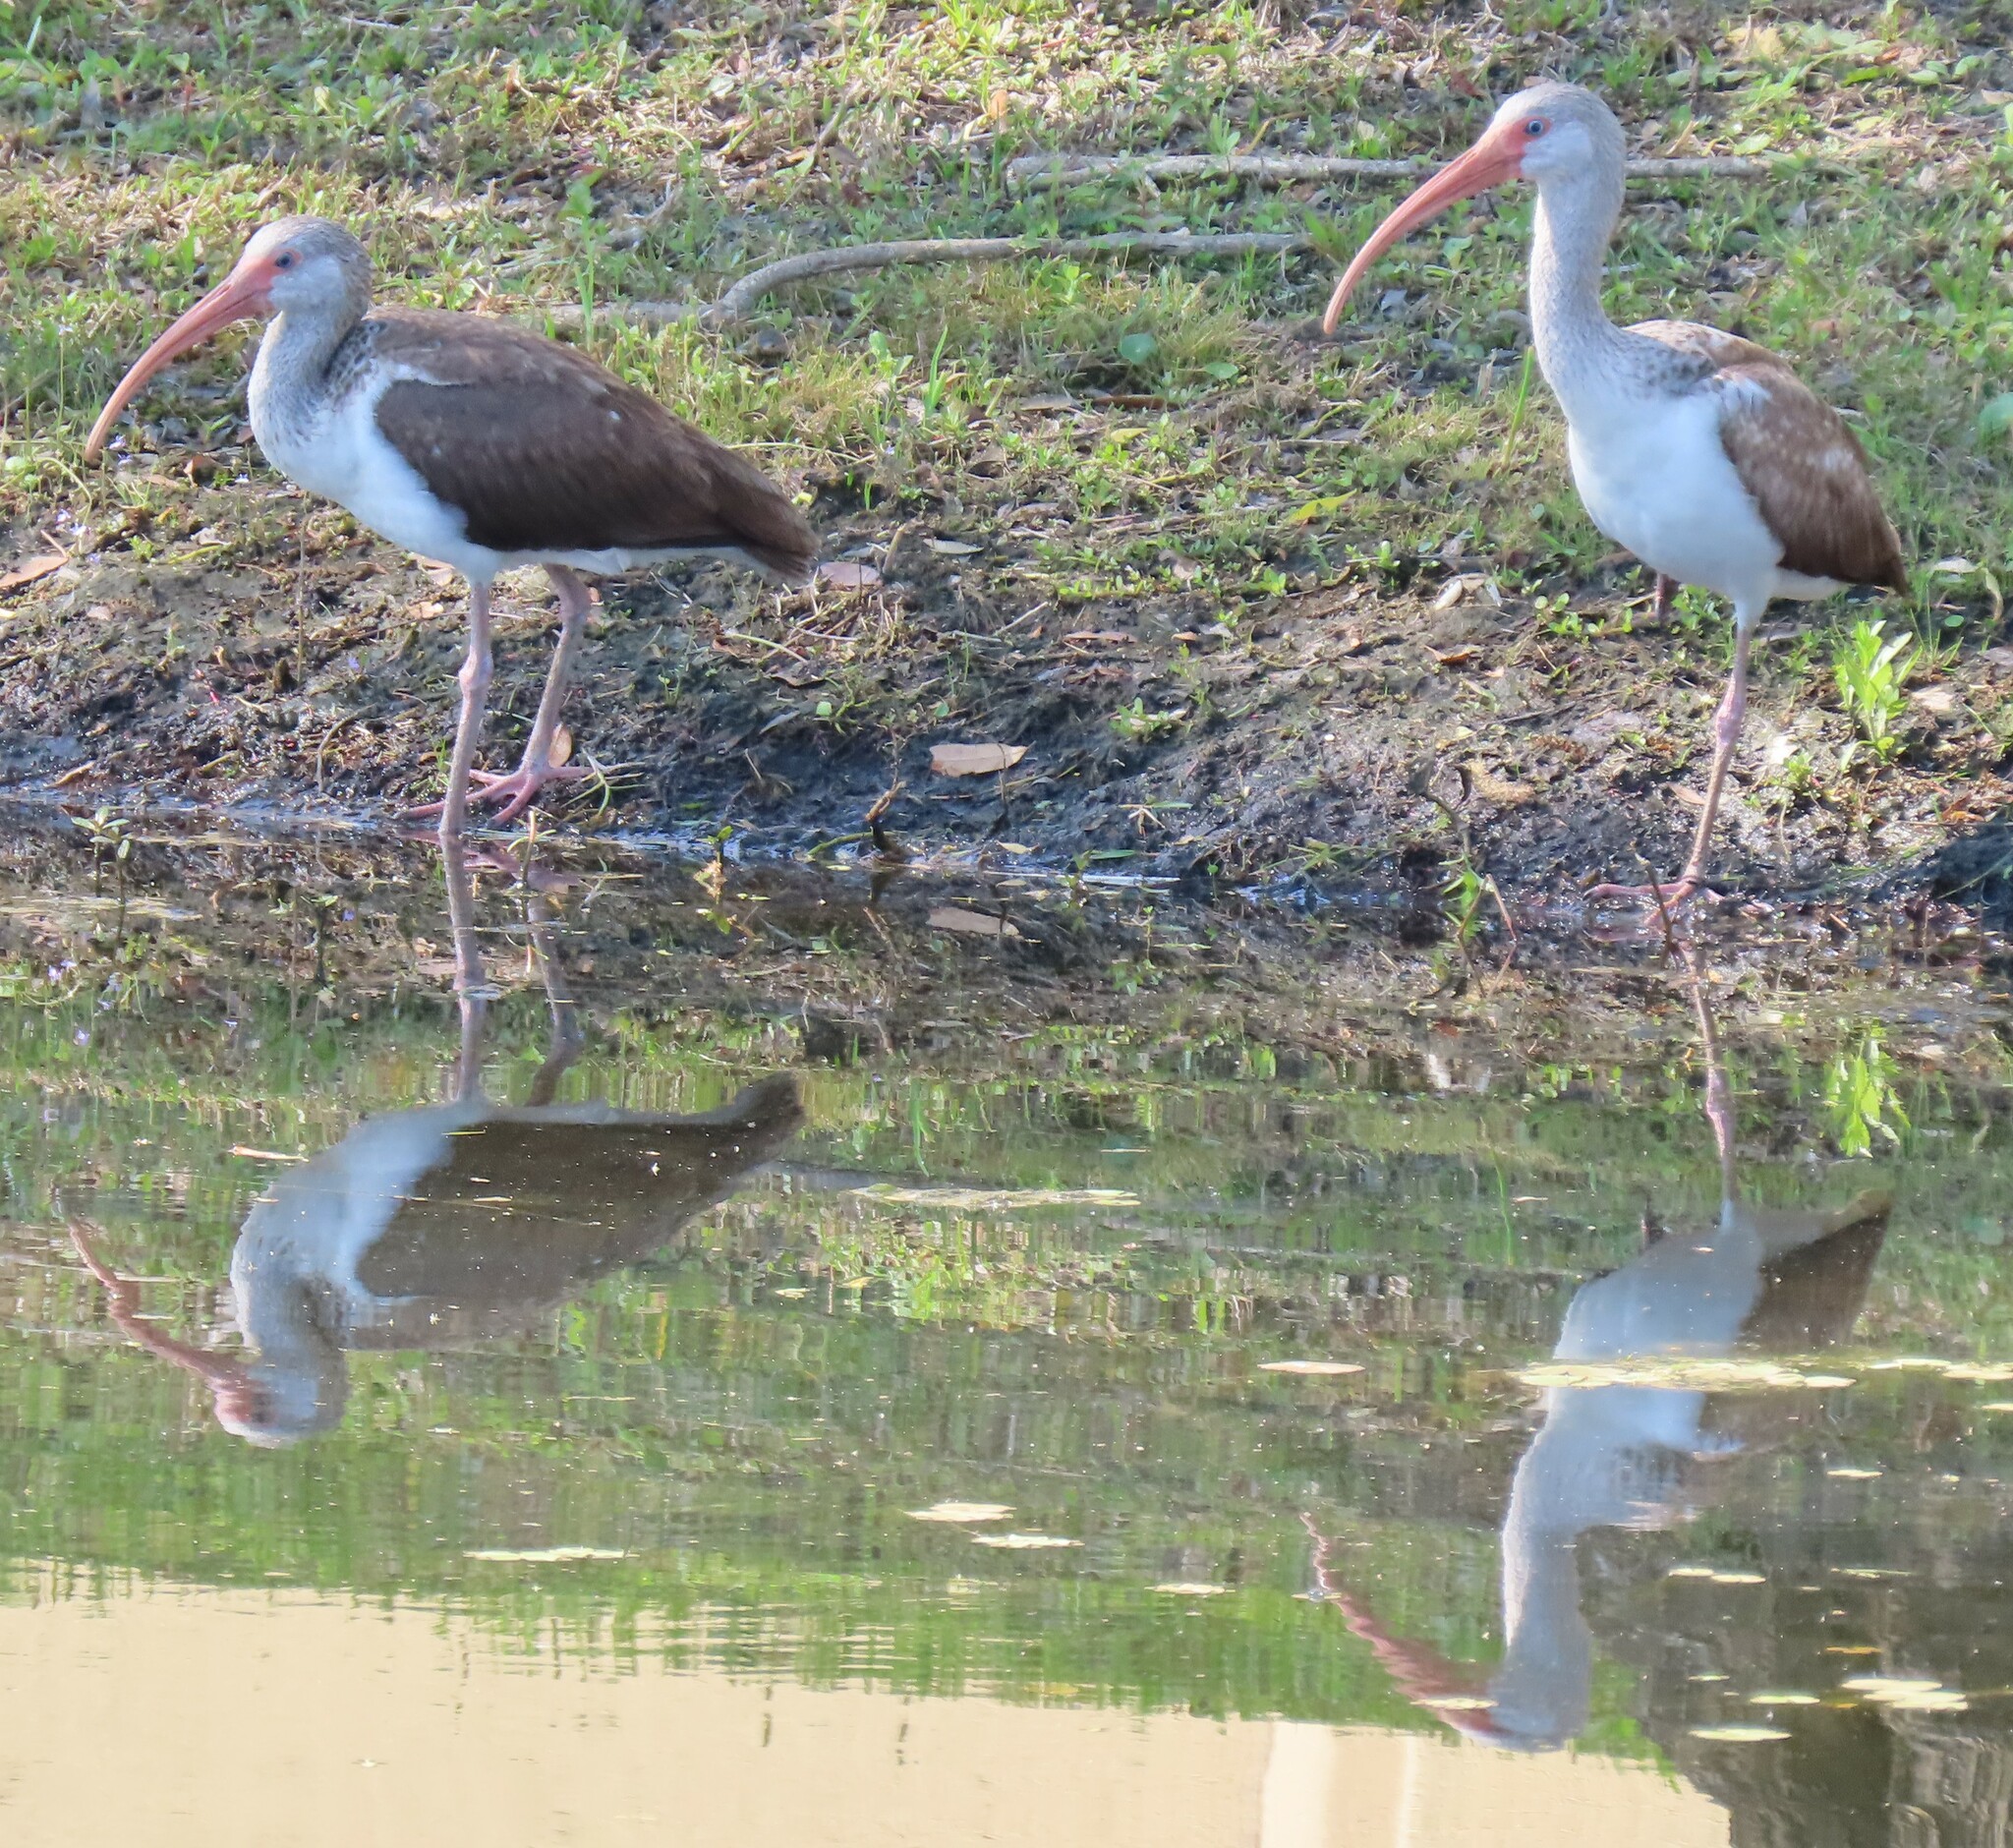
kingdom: Animalia
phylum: Chordata
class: Aves
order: Pelecaniformes
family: Threskiornithidae
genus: Eudocimus
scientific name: Eudocimus albus
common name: White ibis
